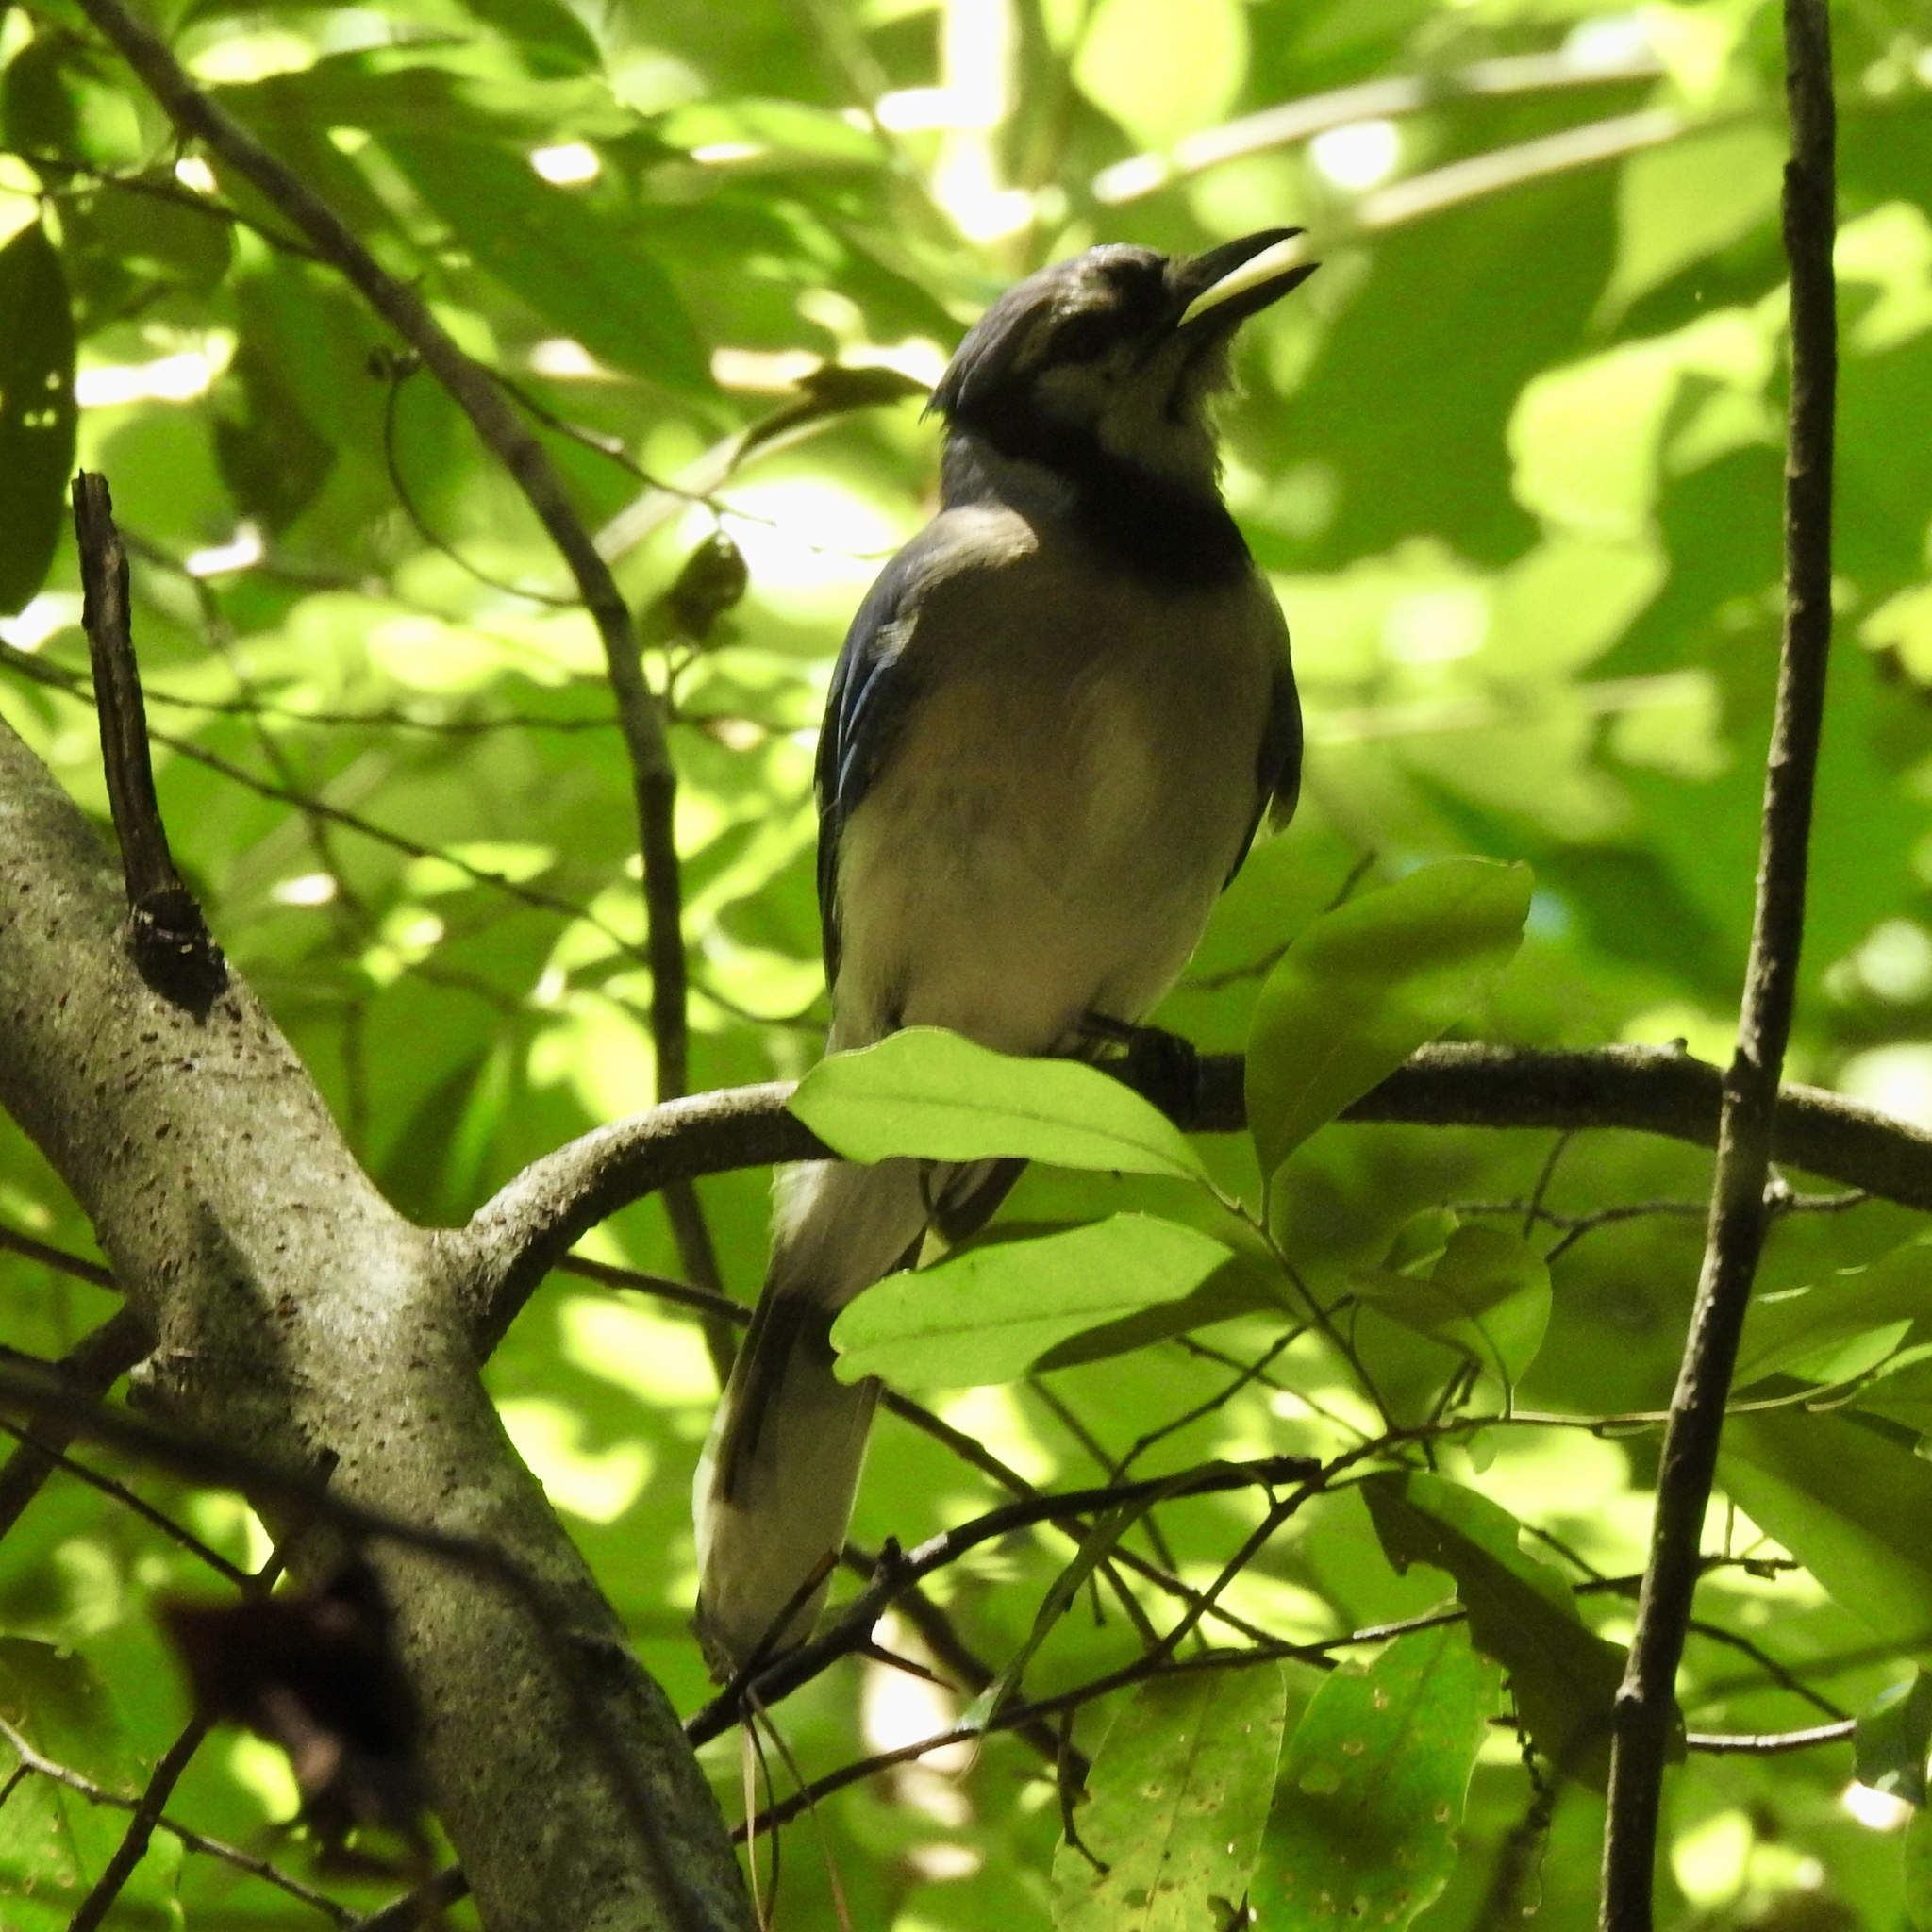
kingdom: Animalia
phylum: Chordata
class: Aves
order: Passeriformes
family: Corvidae
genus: Cyanocitta
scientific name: Cyanocitta cristata
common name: Blue jay
